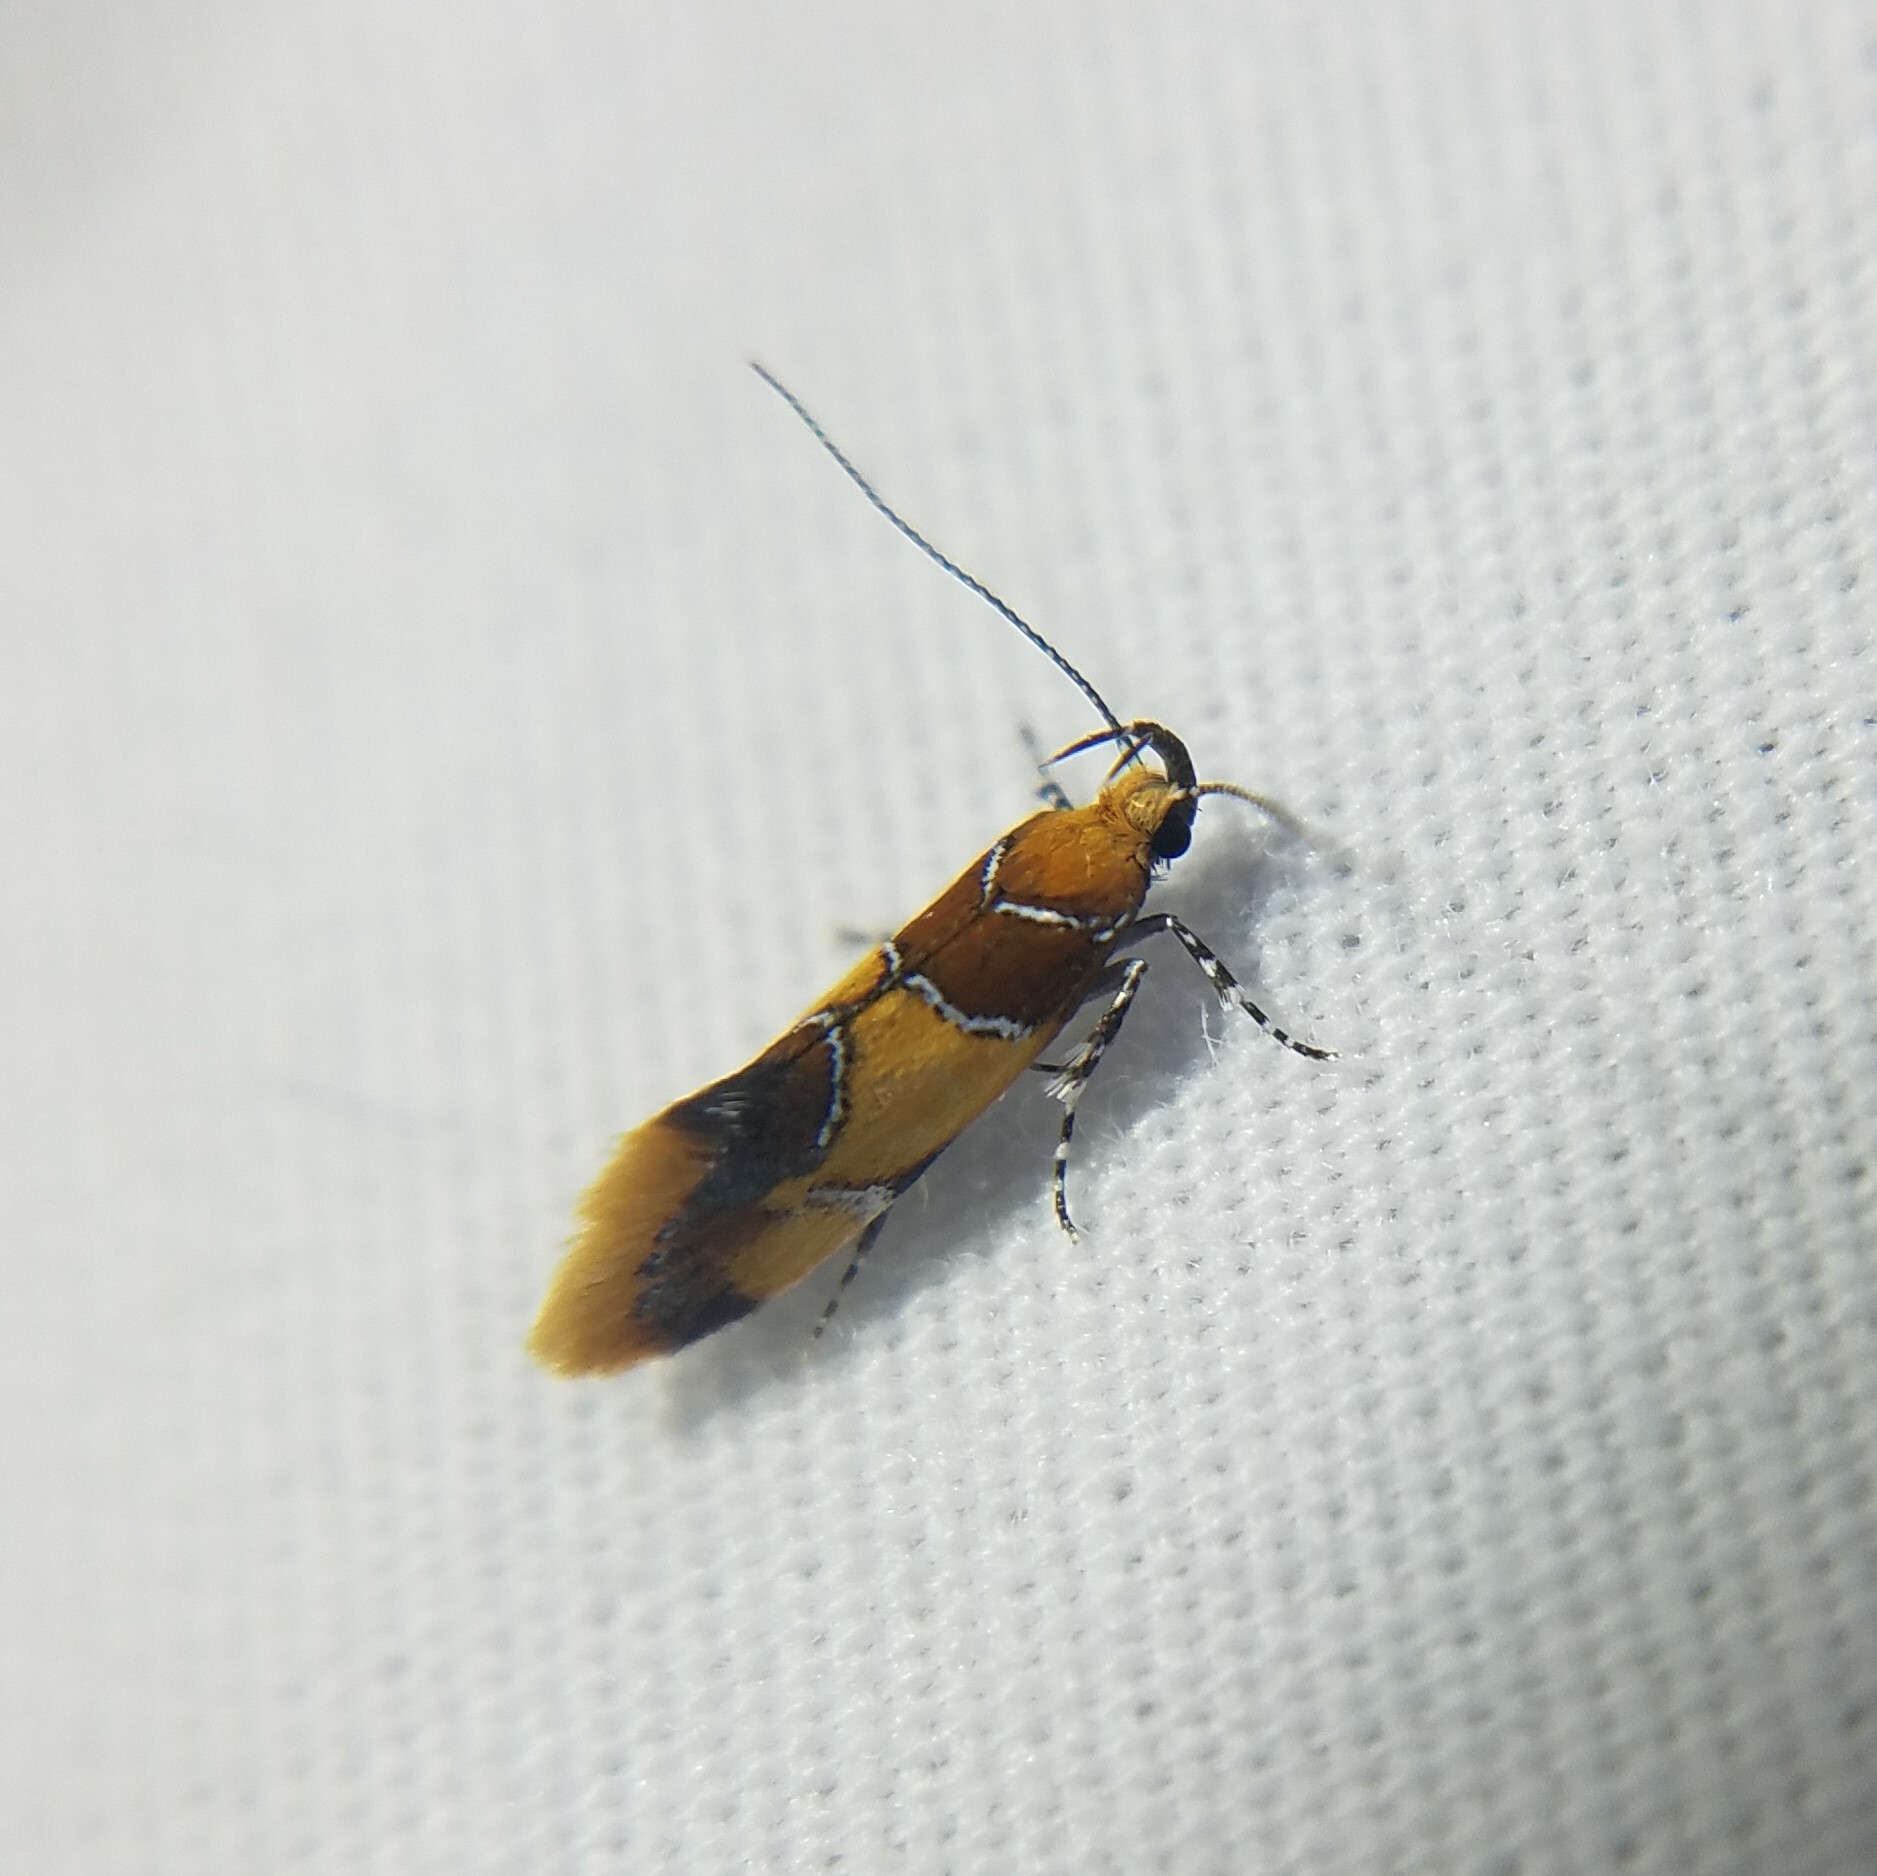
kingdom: Animalia
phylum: Arthropoda
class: Insecta
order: Lepidoptera
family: Oecophoridae
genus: Callima
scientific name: Callima argenticinctella
